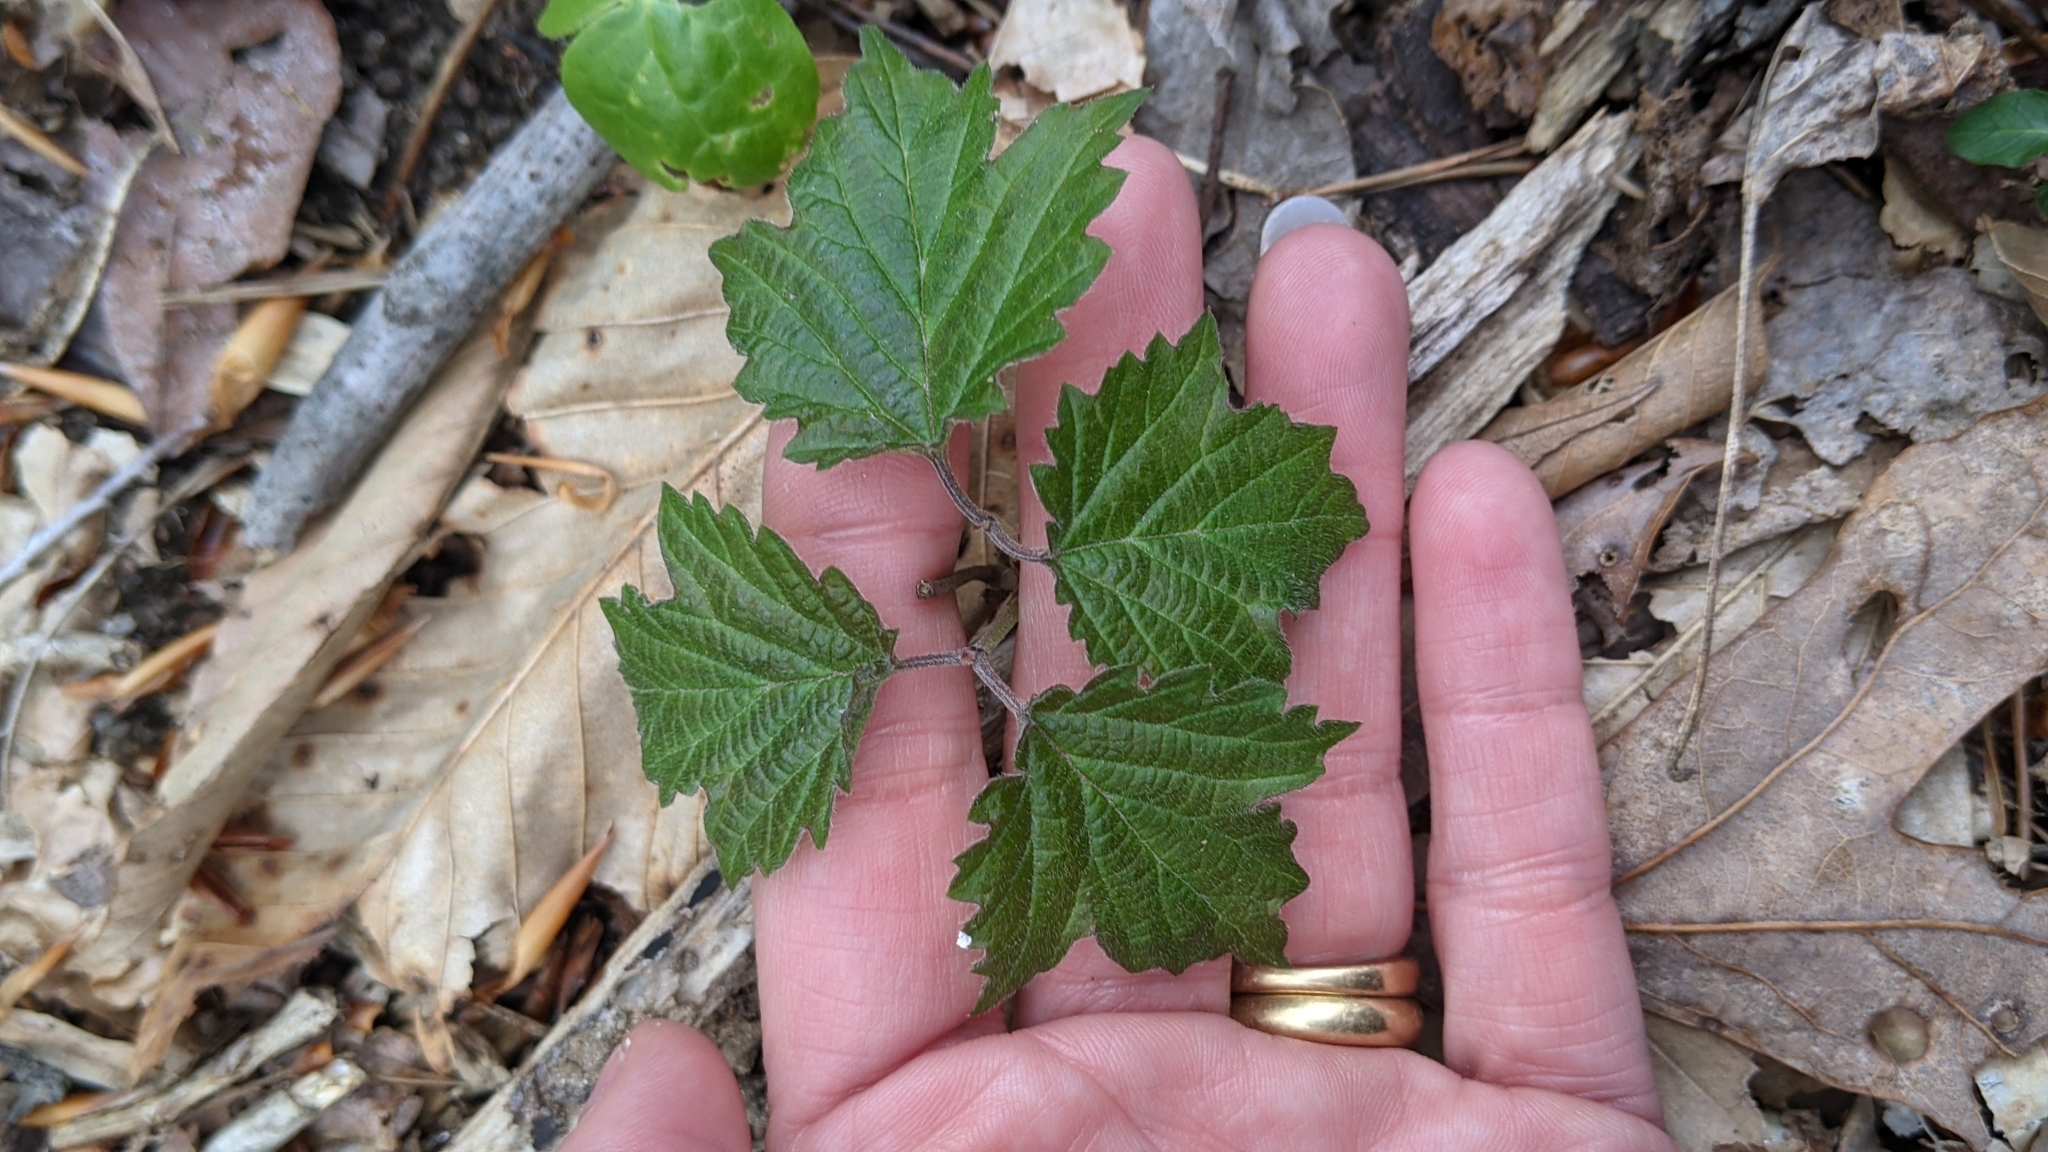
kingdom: Plantae
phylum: Tracheophyta
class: Magnoliopsida
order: Dipsacales
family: Viburnaceae
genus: Viburnum
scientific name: Viburnum acerifolium
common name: Dockmackie
